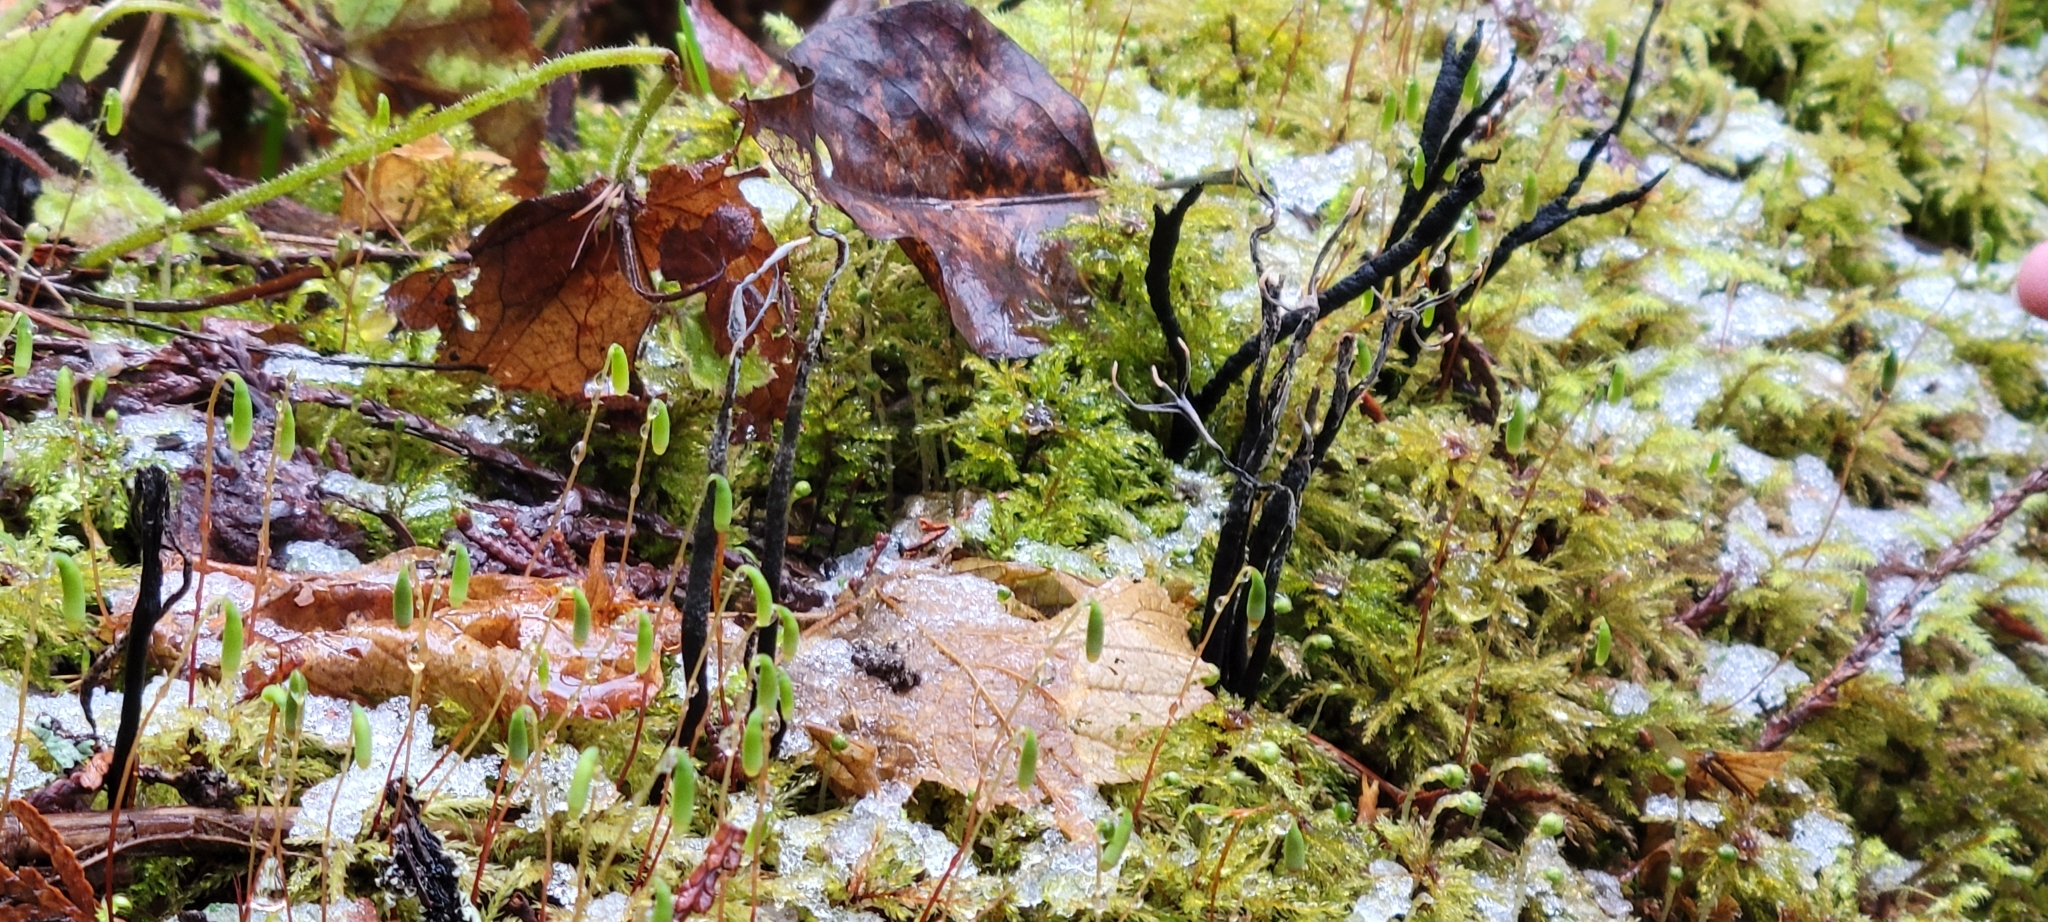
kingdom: Fungi
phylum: Ascomycota
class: Sordariomycetes
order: Xylariales
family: Xylariaceae
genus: Xylaria
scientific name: Xylaria hypoxylon
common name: Candle-snuff fungus
